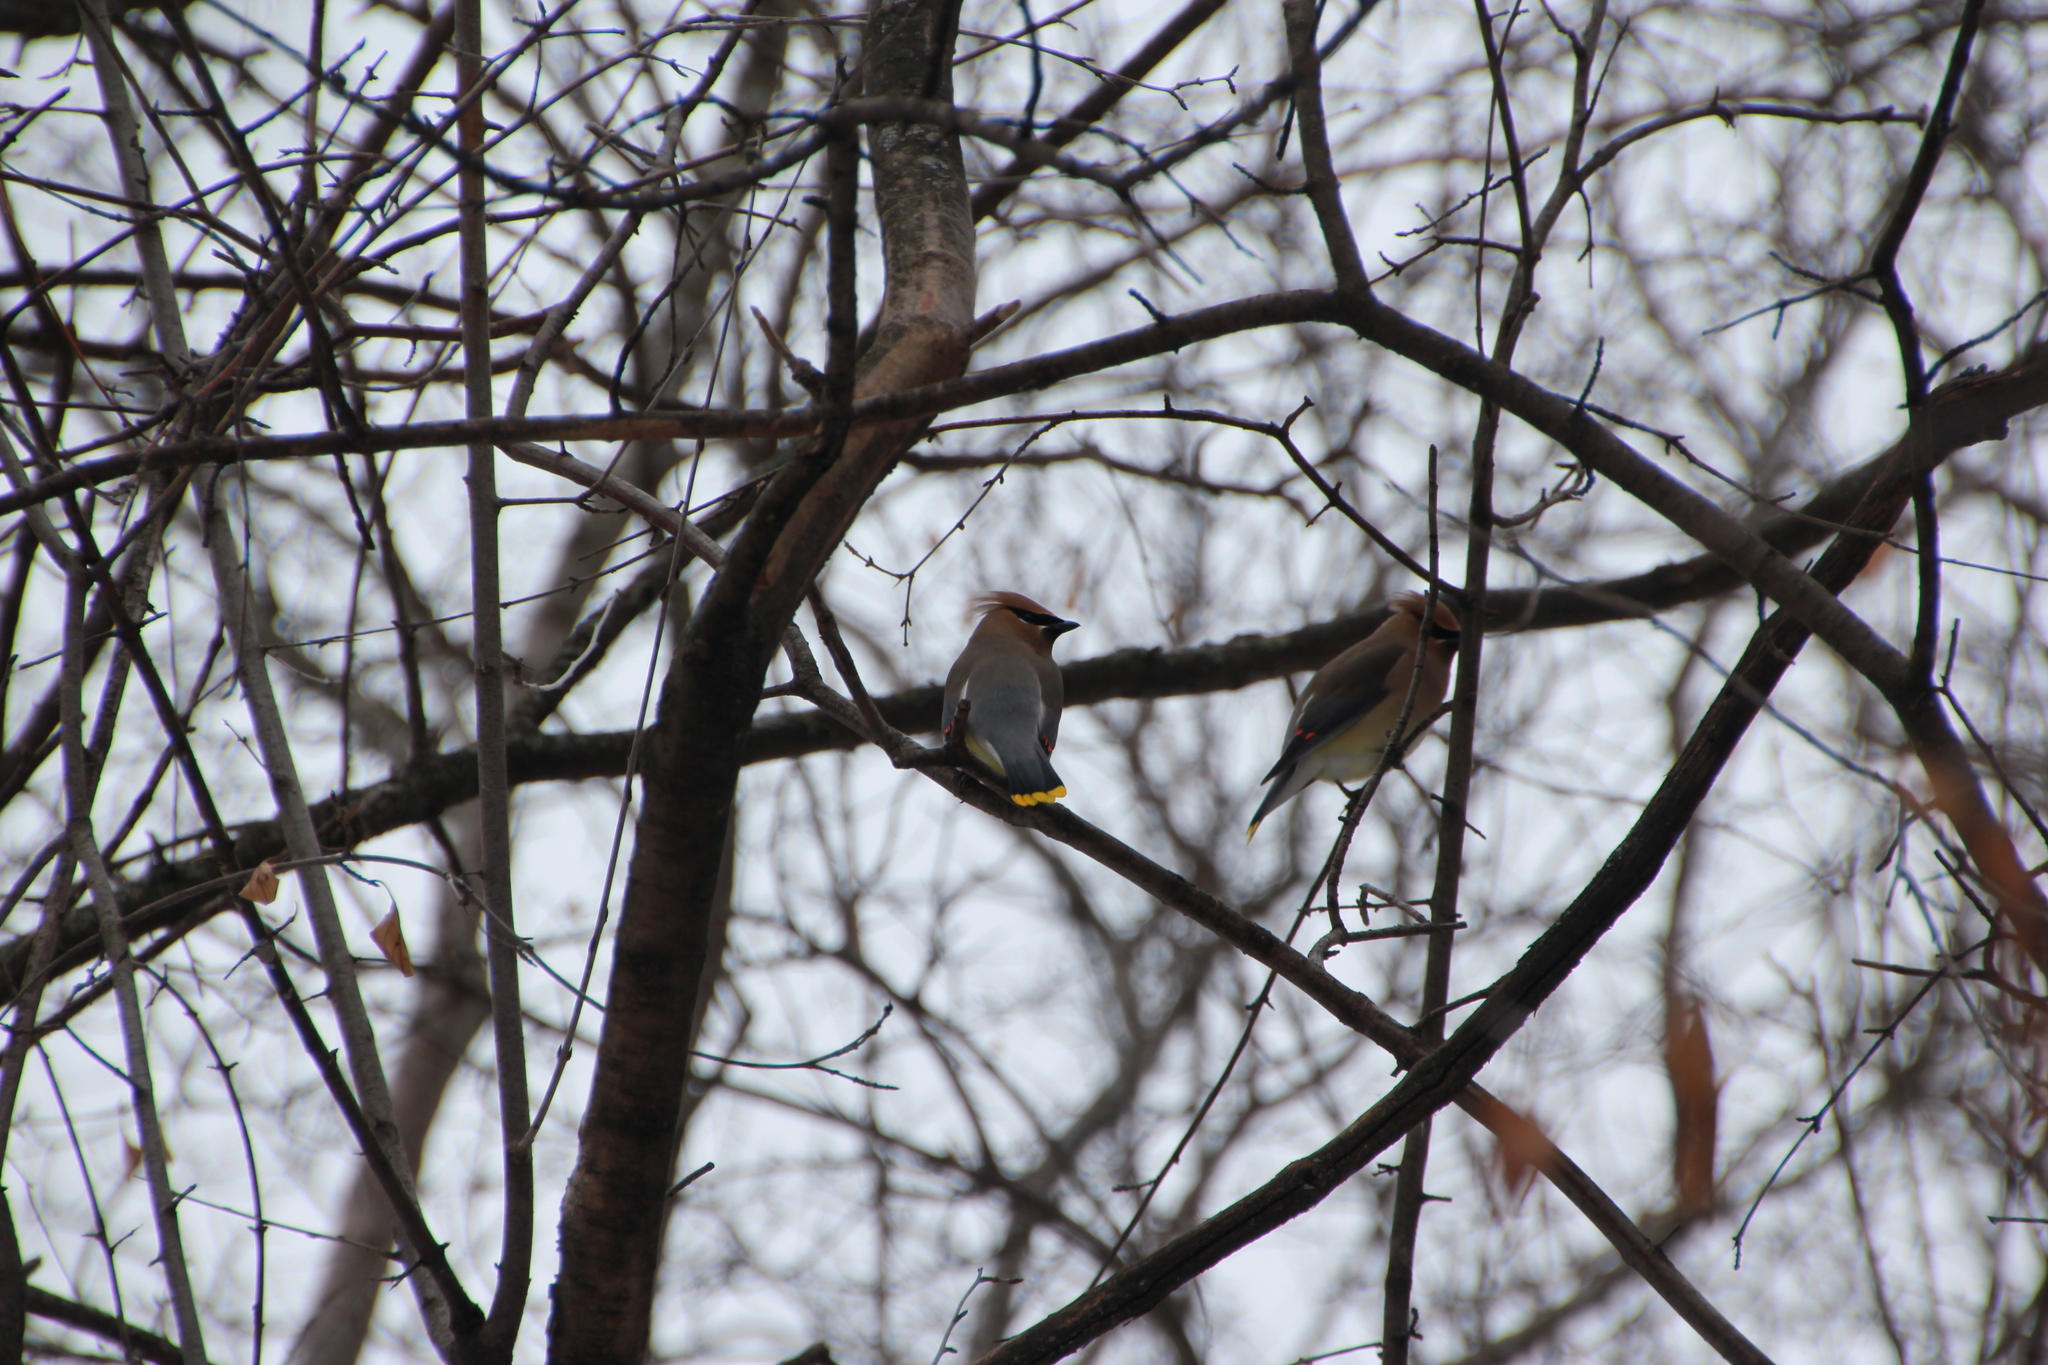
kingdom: Animalia
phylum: Chordata
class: Aves
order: Passeriformes
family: Bombycillidae
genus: Bombycilla
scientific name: Bombycilla cedrorum
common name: Cedar waxwing
